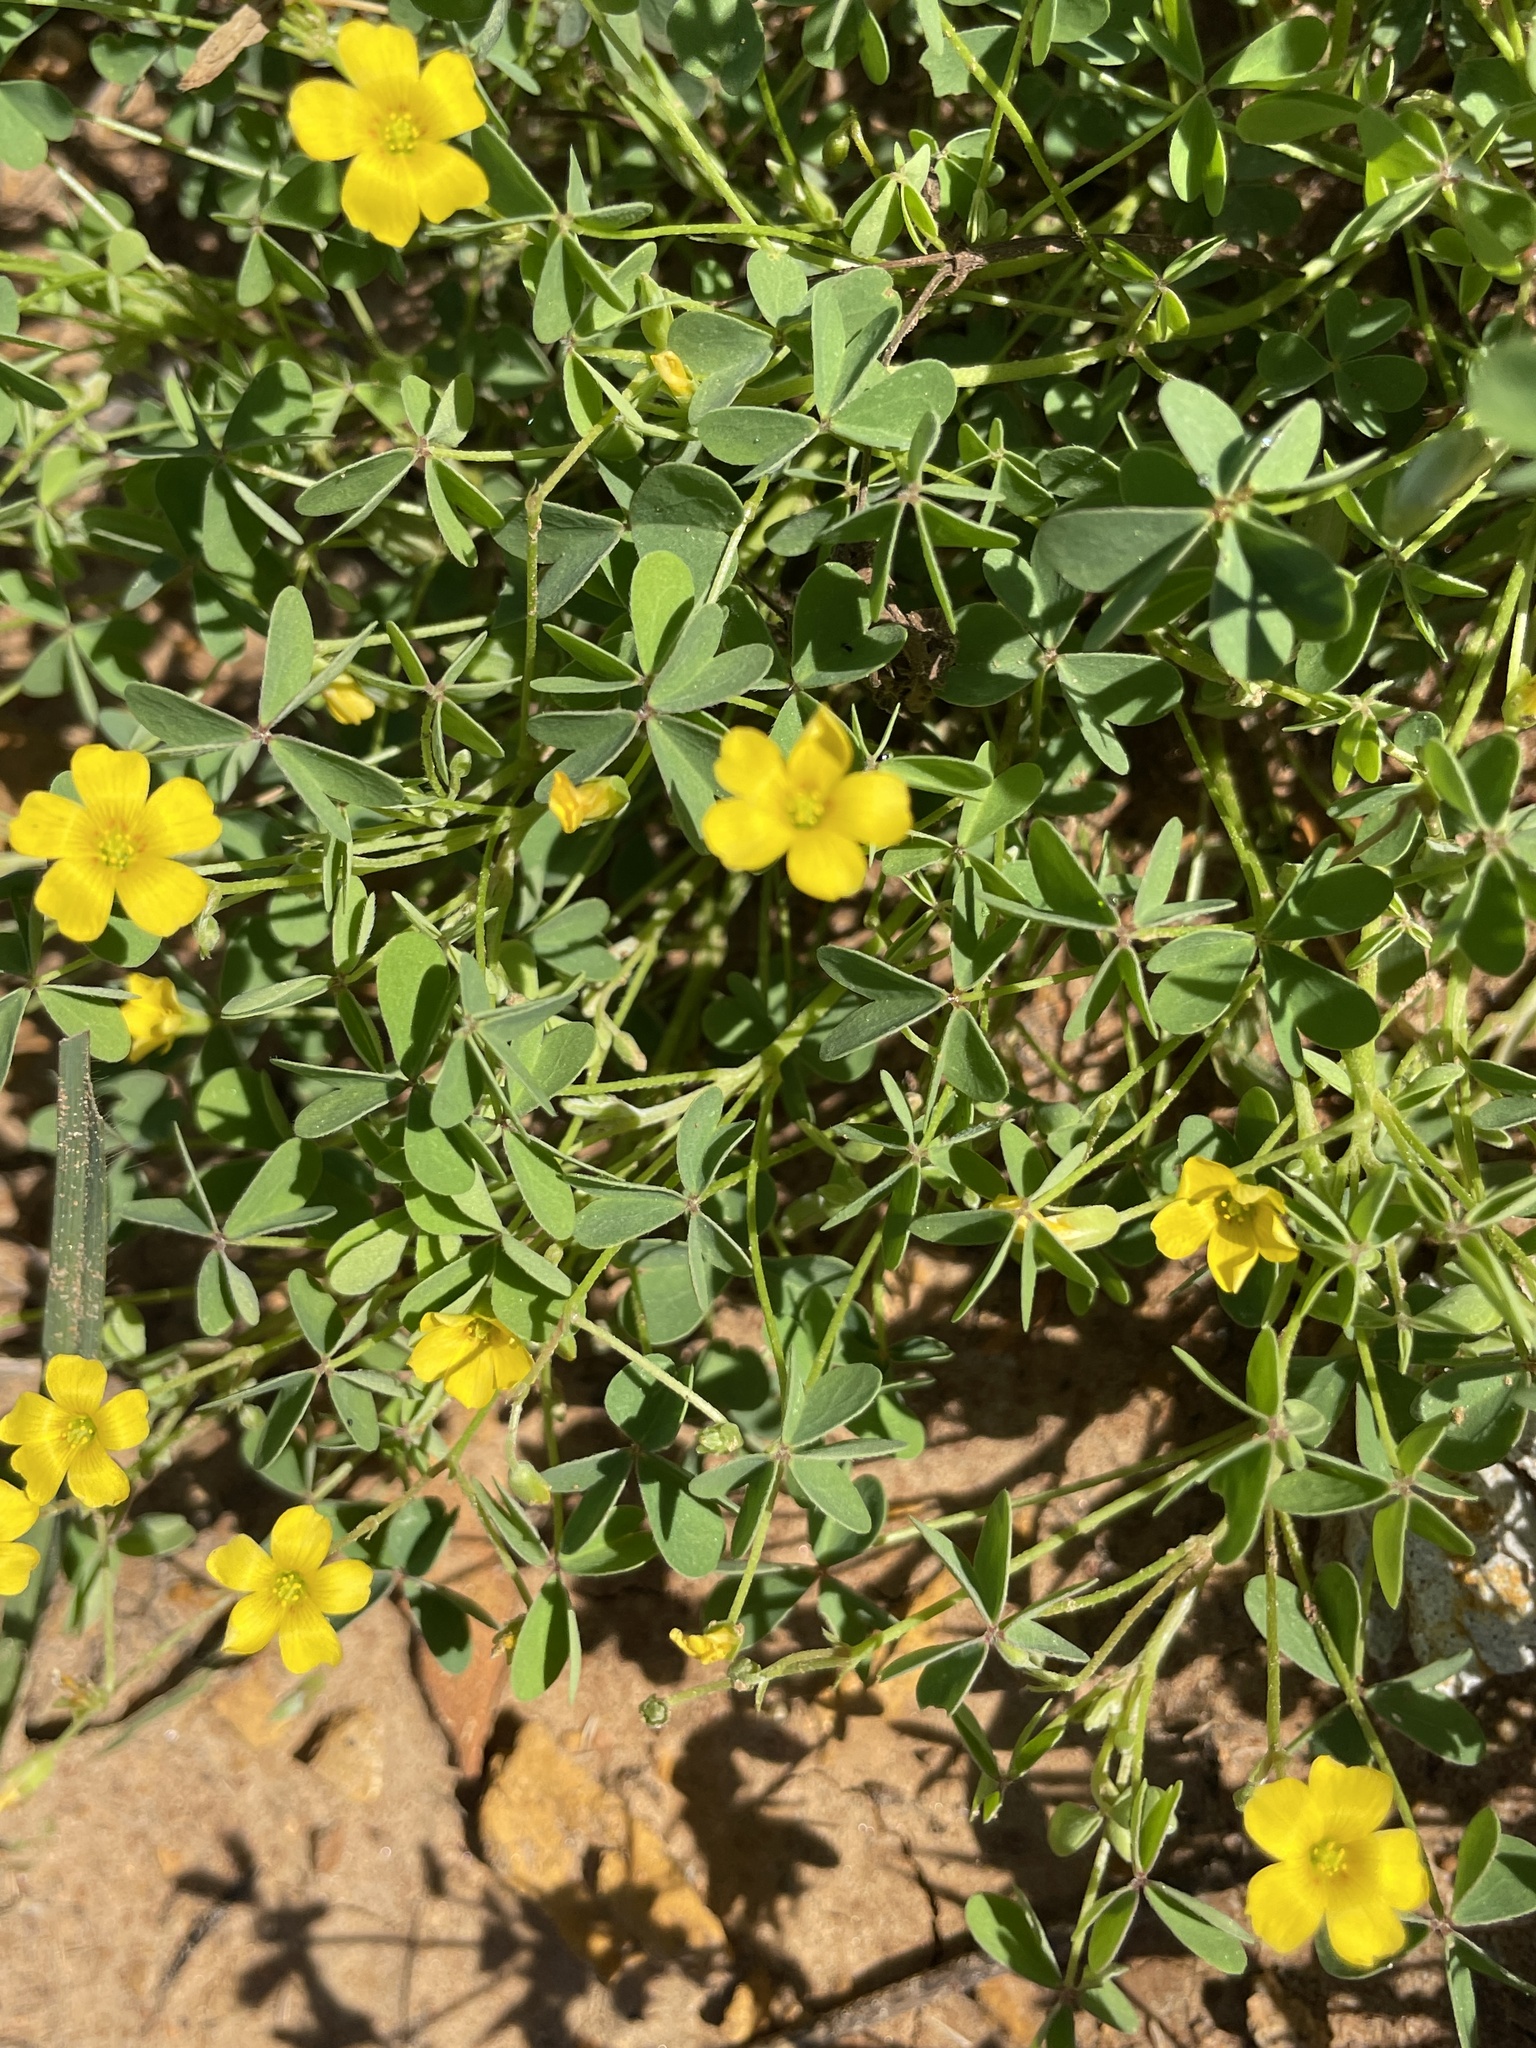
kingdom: Plantae
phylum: Tracheophyta
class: Magnoliopsida
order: Oxalidales
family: Oxalidaceae
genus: Oxalis
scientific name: Oxalis dillenii
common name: Sussex yellow-sorrel
